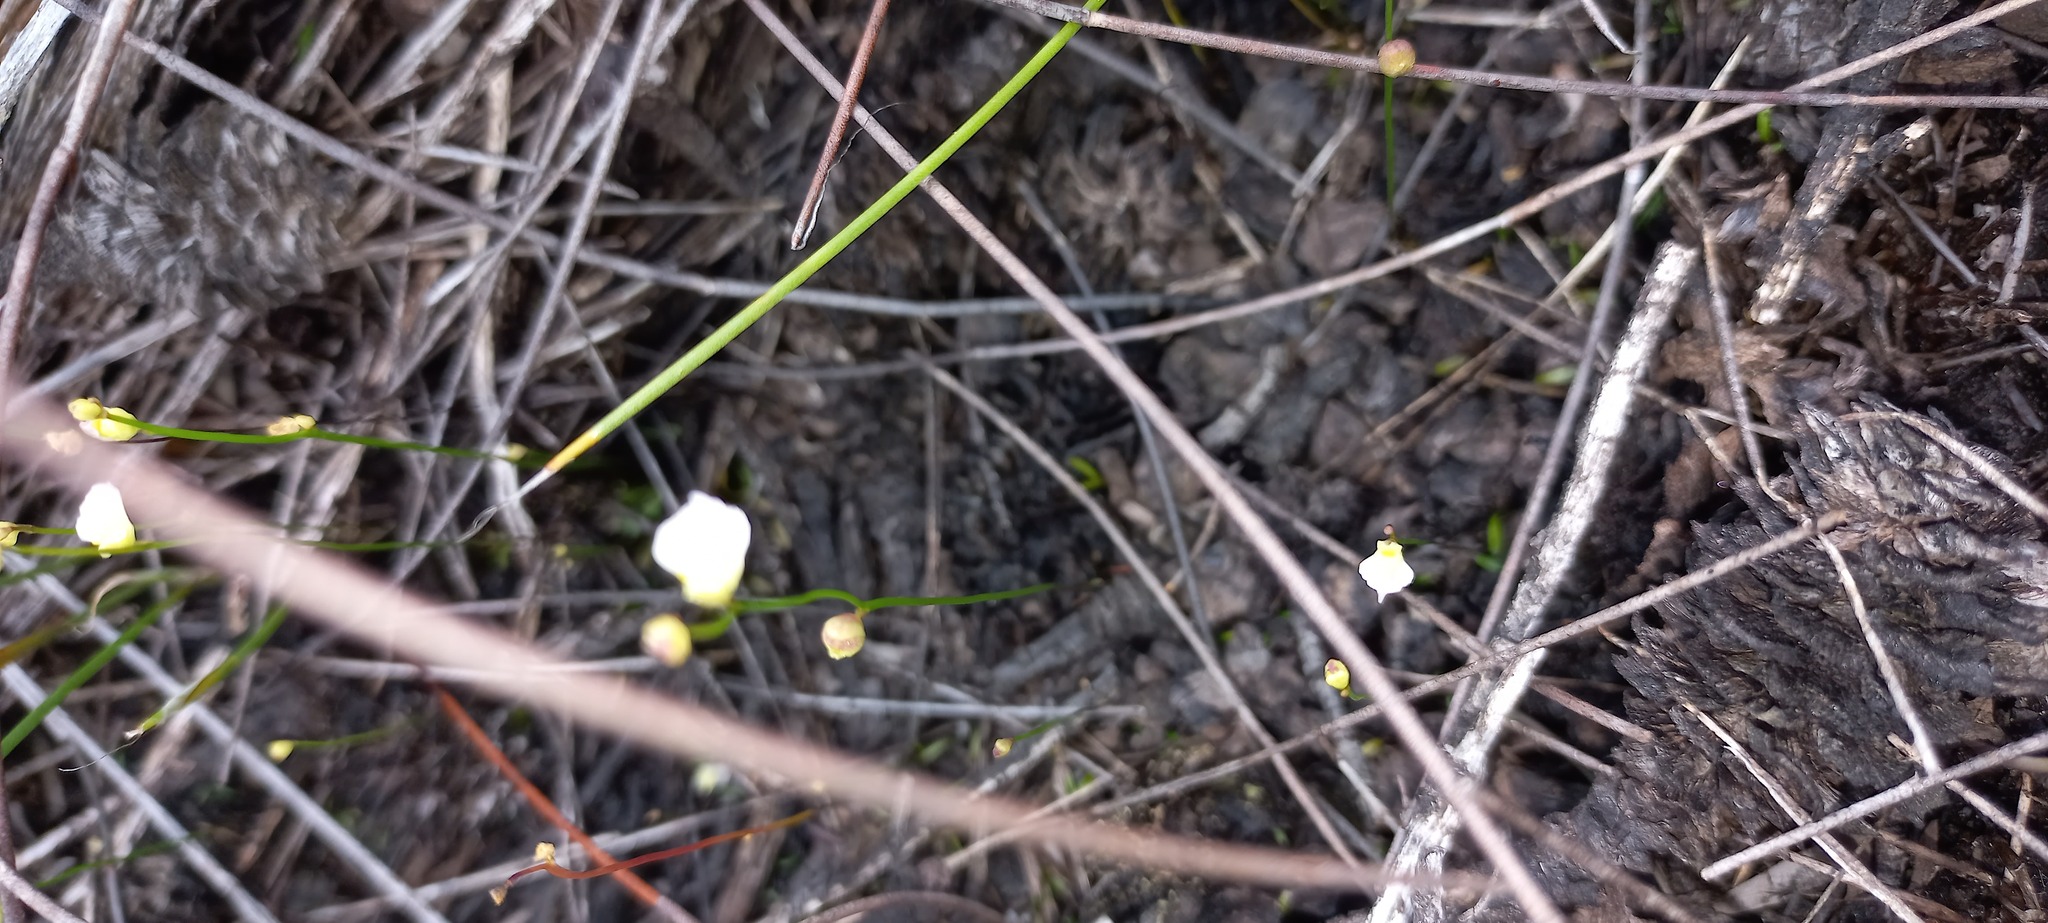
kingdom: Plantae
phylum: Tracheophyta
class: Magnoliopsida
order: Lamiales
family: Lentibulariaceae
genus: Utricularia
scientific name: Utricularia bisquamata
